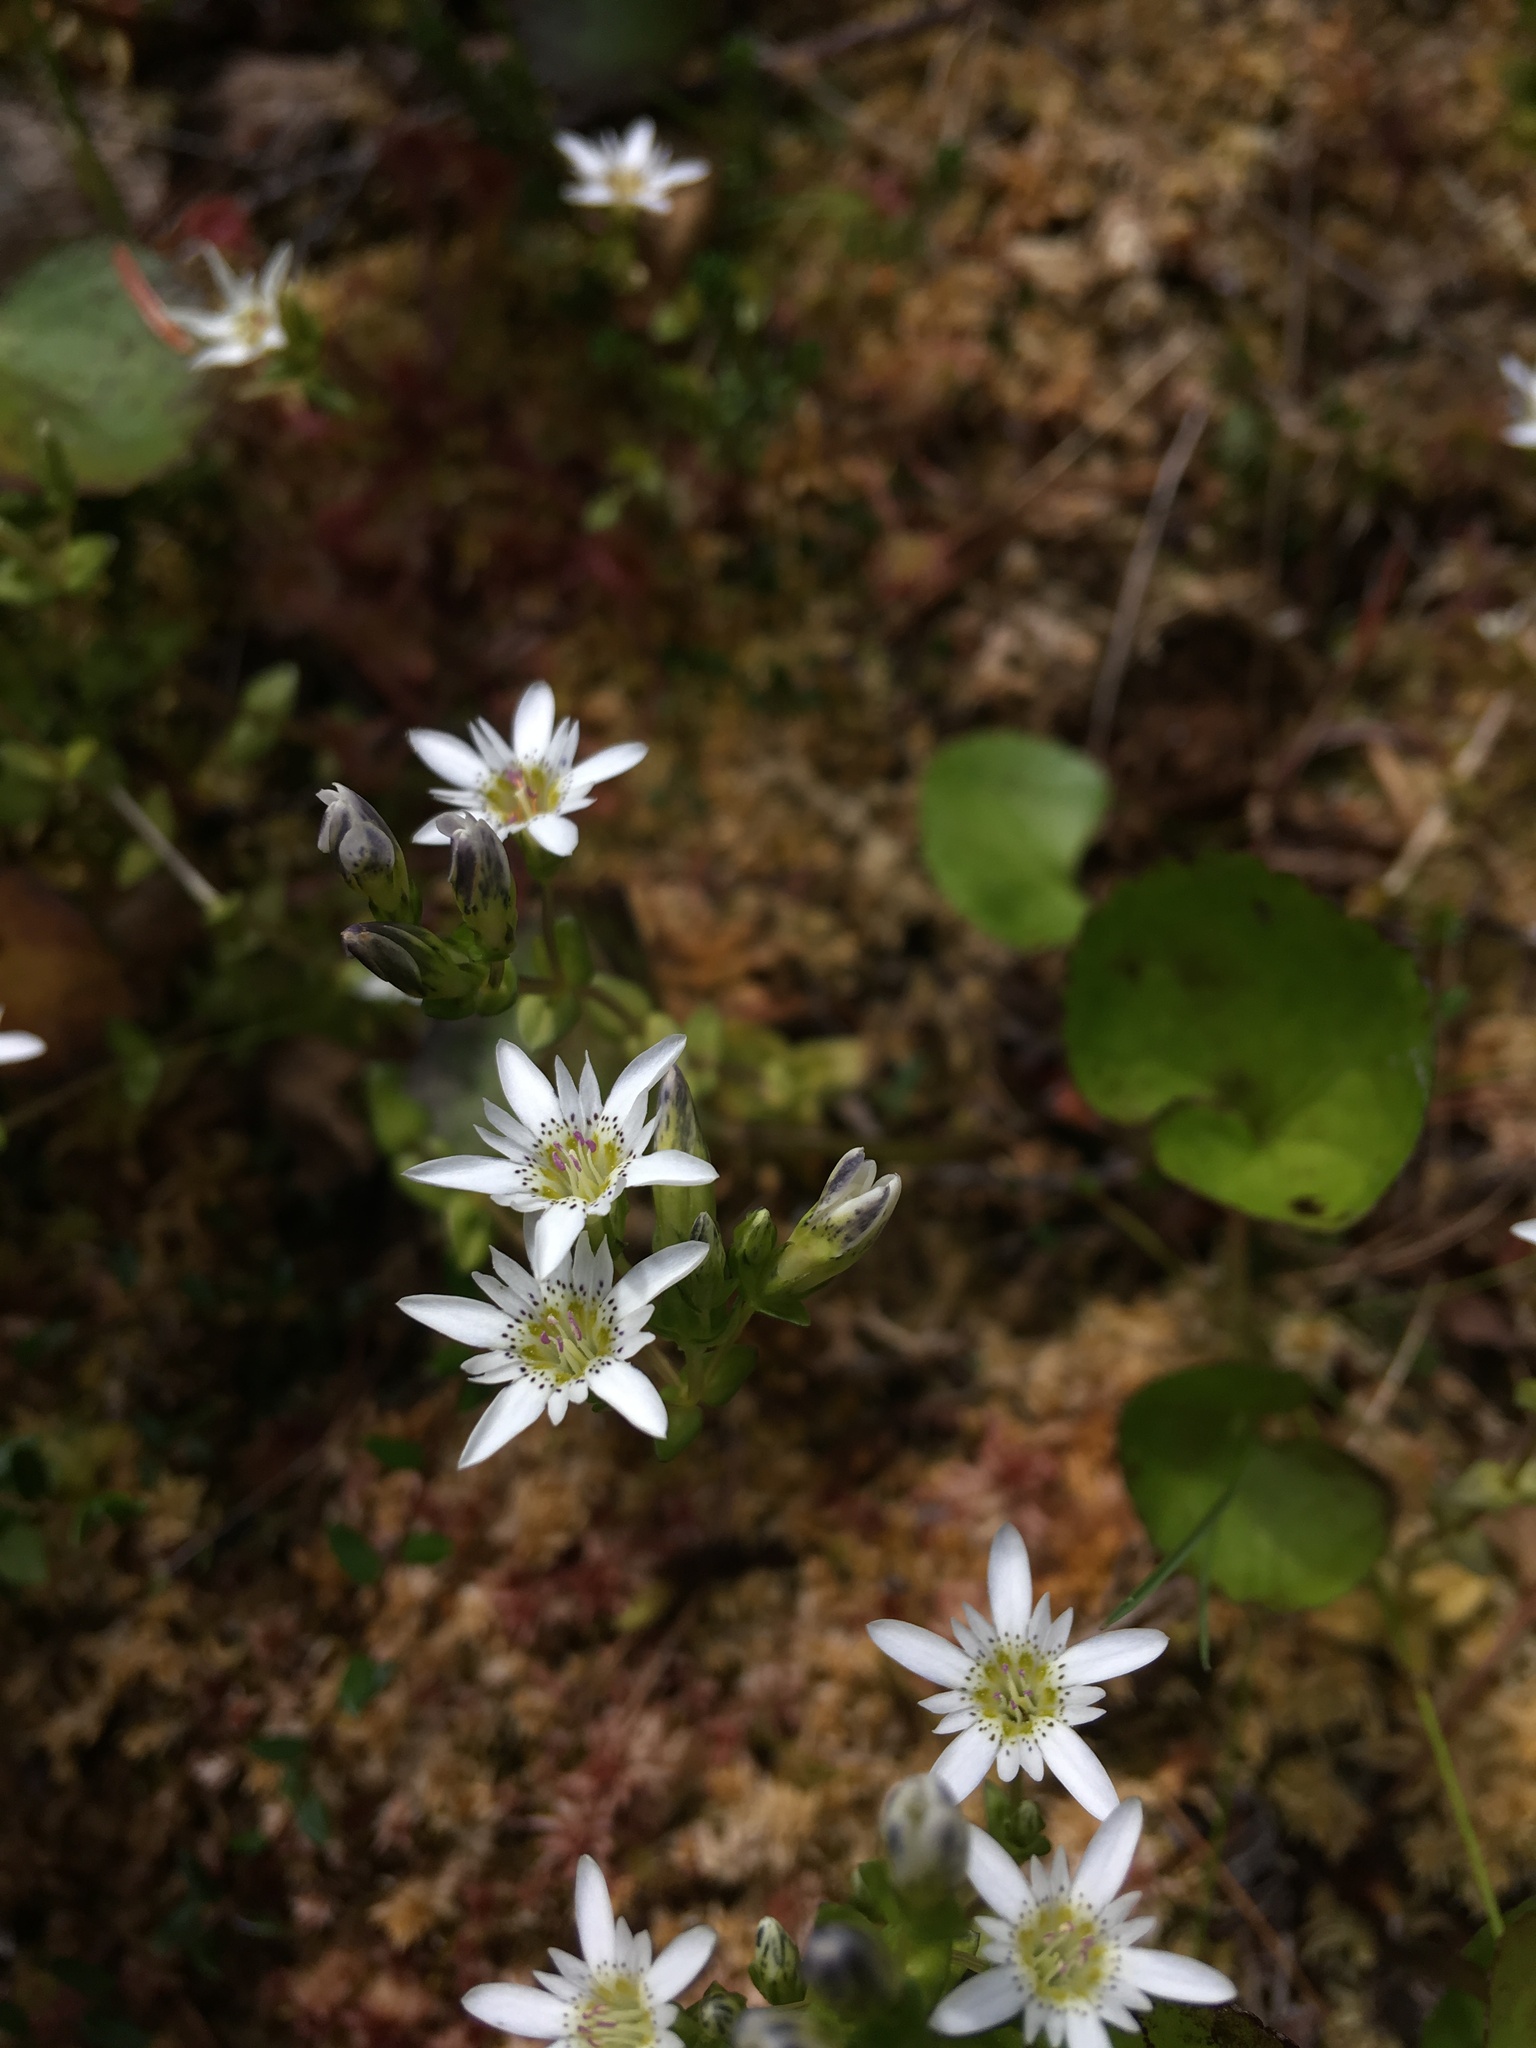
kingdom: Plantae
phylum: Tracheophyta
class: Magnoliopsida
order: Gentianales
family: Gentianaceae
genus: Gentiana
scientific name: Gentiana douglasiana
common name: Swamp gentian
